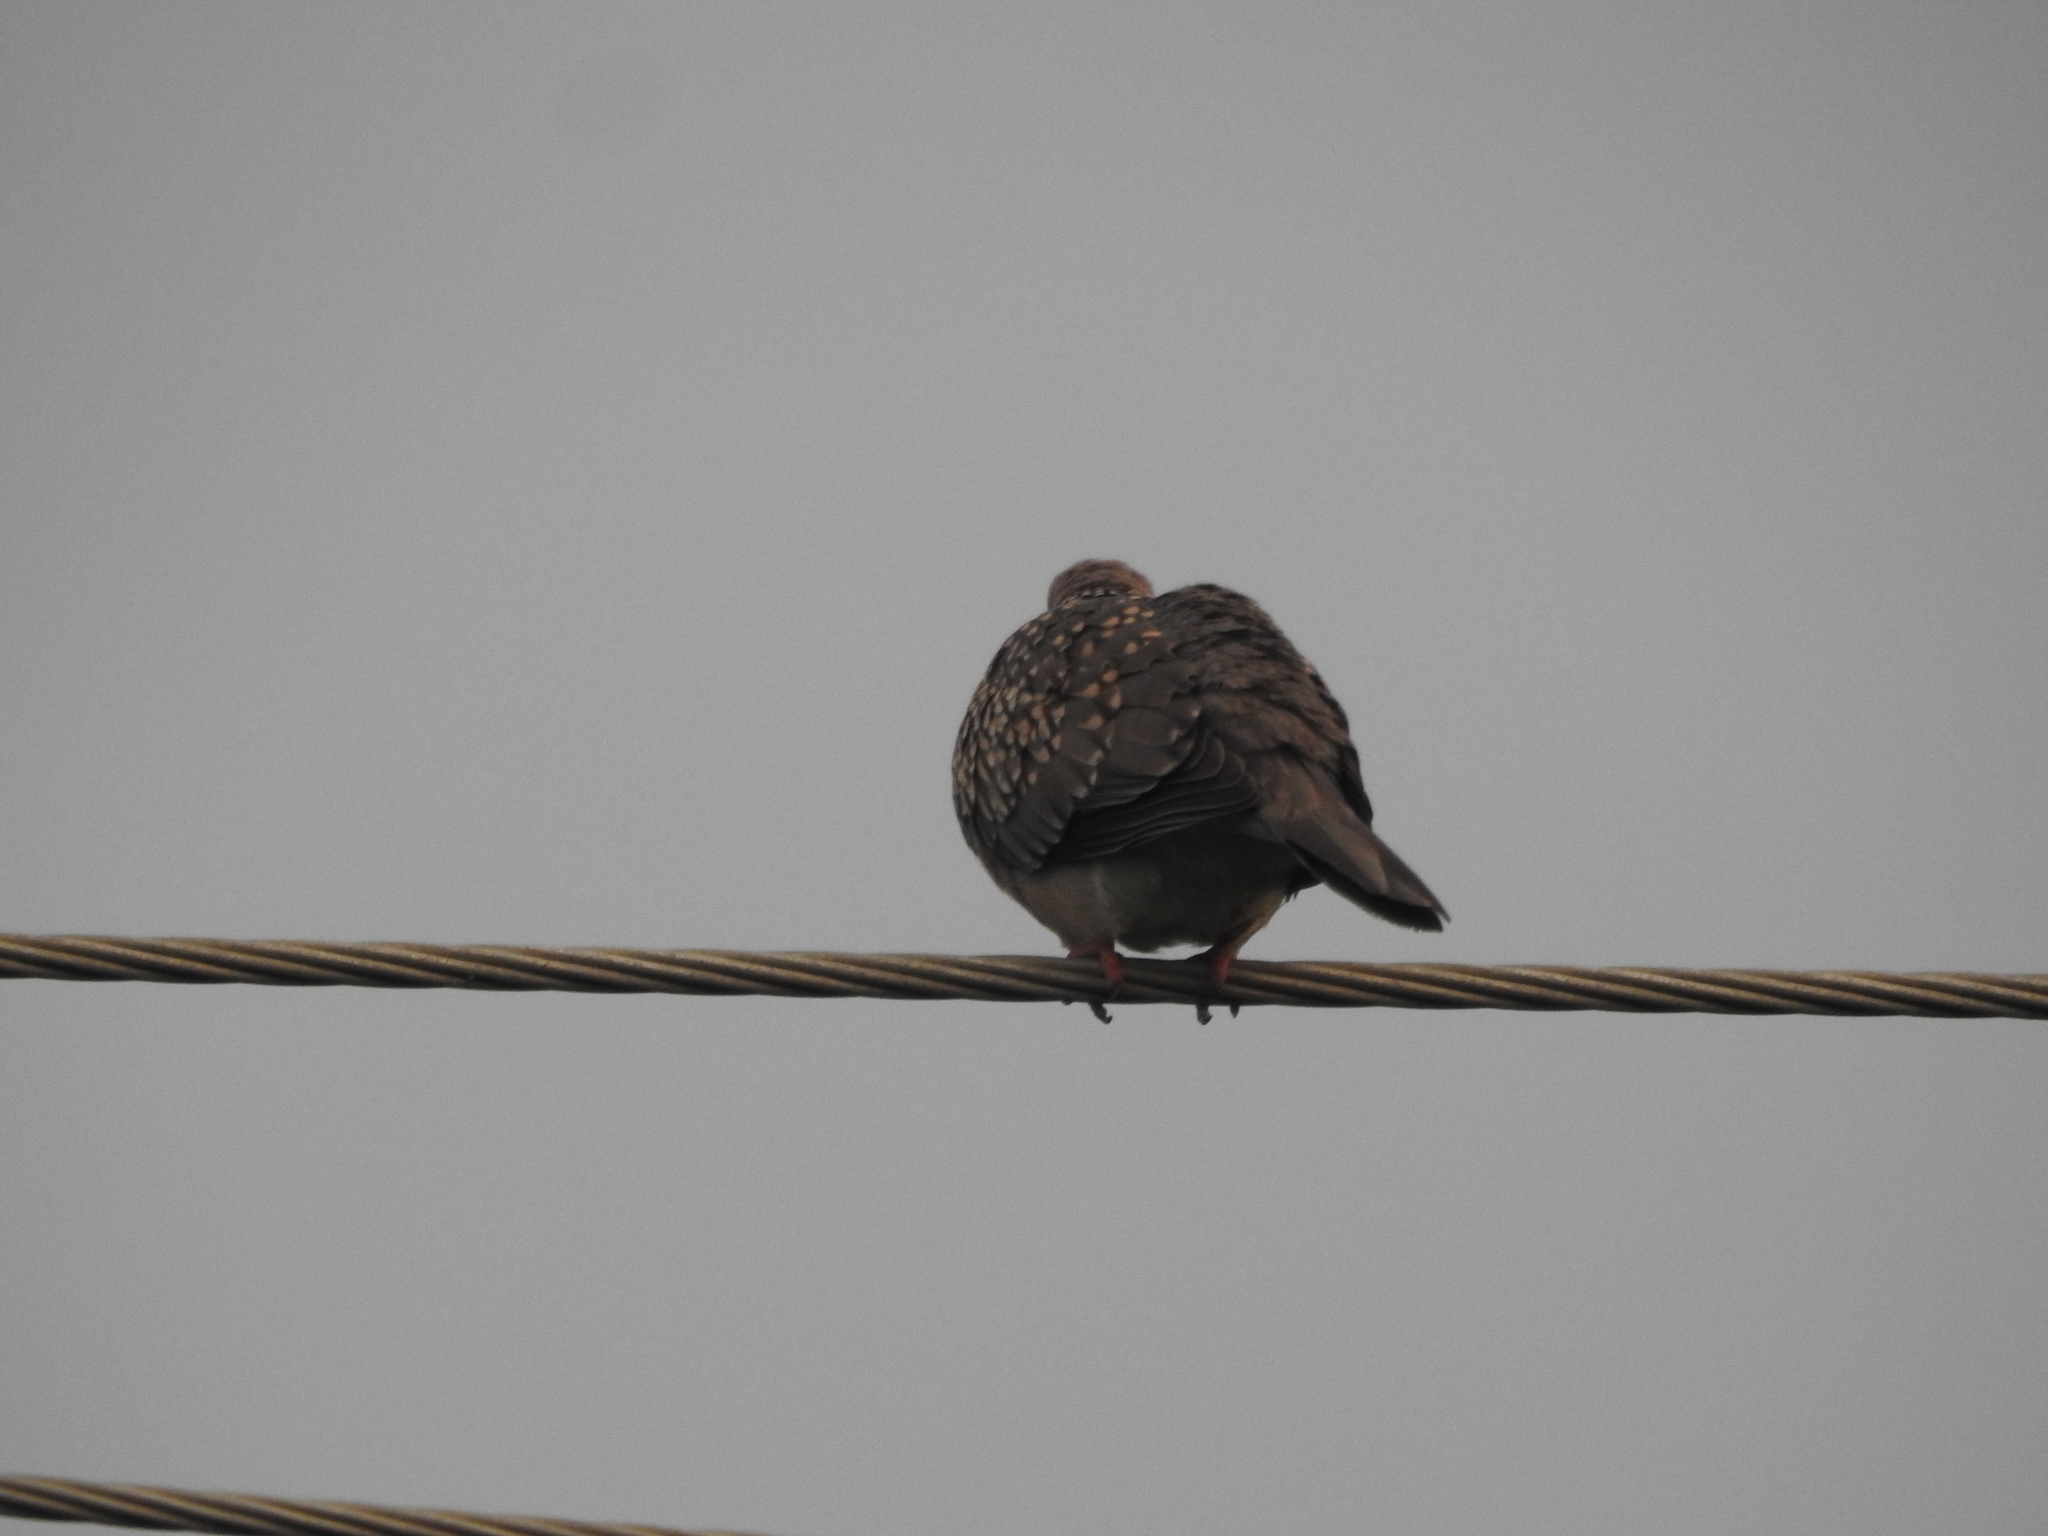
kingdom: Animalia
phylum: Chordata
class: Aves
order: Columbiformes
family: Columbidae
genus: Spilopelia
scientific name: Spilopelia chinensis
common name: Spotted dove
